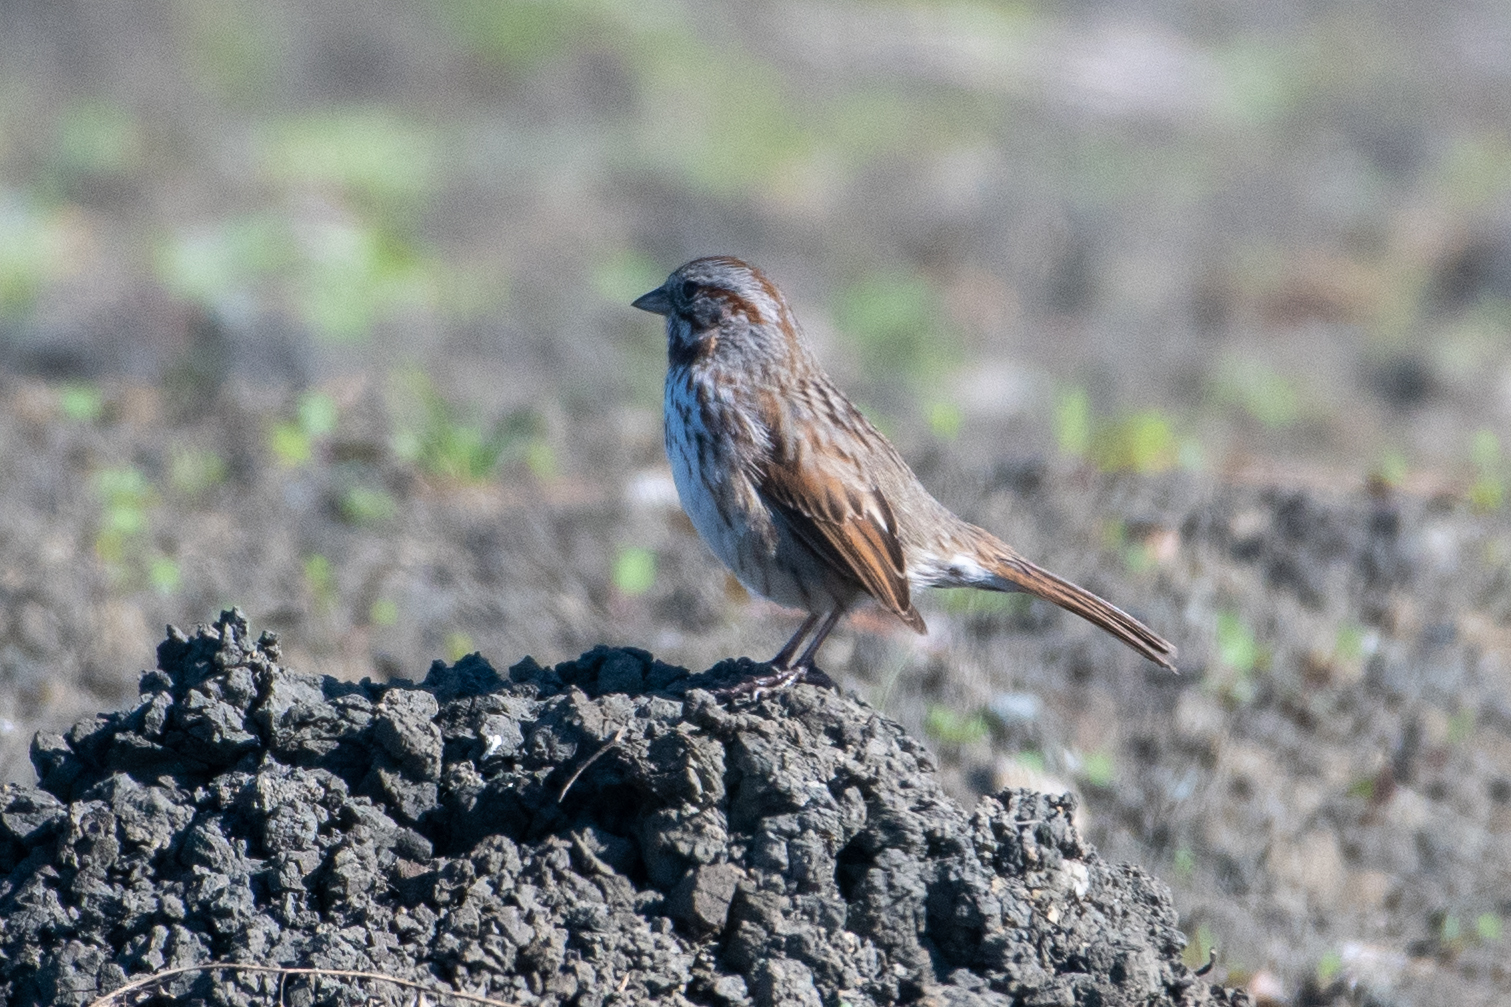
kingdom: Animalia
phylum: Chordata
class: Aves
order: Passeriformes
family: Passerellidae
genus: Melospiza
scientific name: Melospiza melodia
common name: Song sparrow
